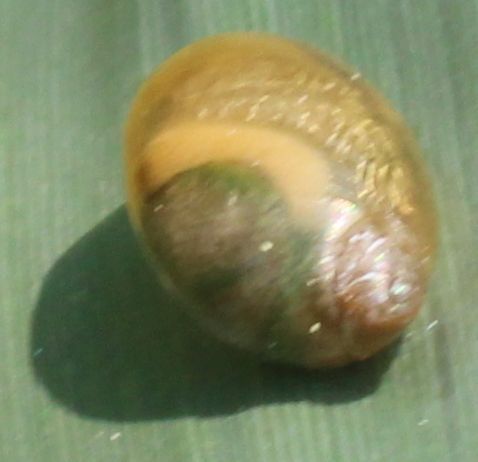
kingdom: Animalia
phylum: Mollusca
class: Gastropoda
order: Stylommatophora
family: Succineidae
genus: Succinea
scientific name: Succinea putris
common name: European ambersnail
